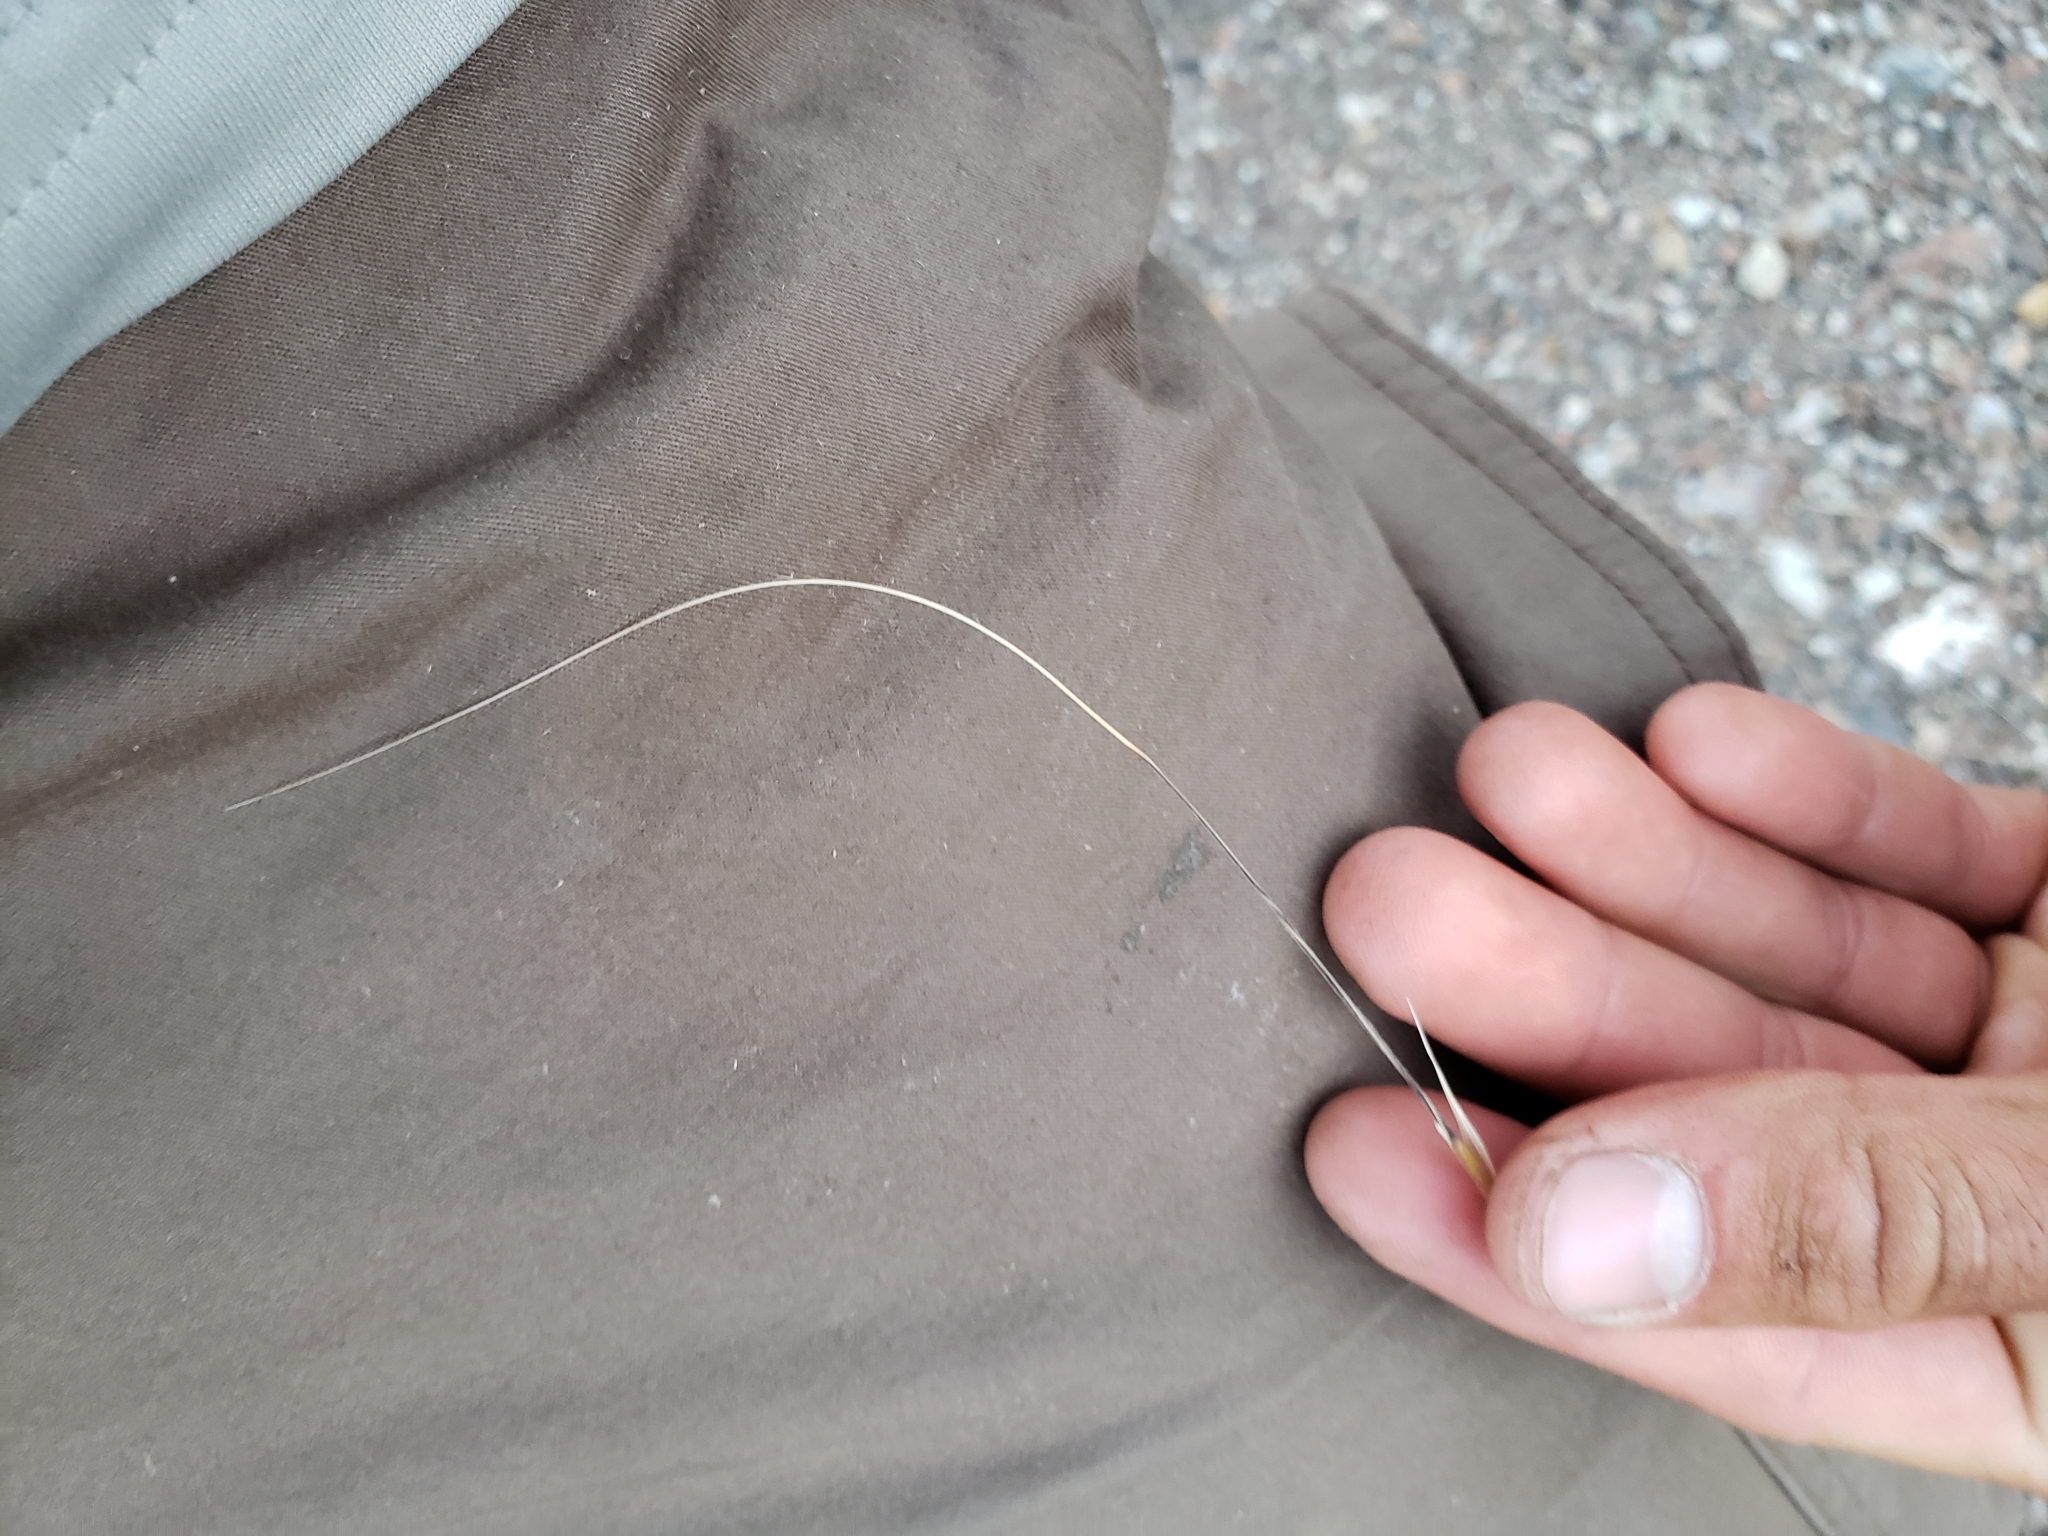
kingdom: Plantae
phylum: Tracheophyta
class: Liliopsida
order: Poales
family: Poaceae
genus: Hesperostipa
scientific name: Hesperostipa comata
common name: Needle-and-thread grass
